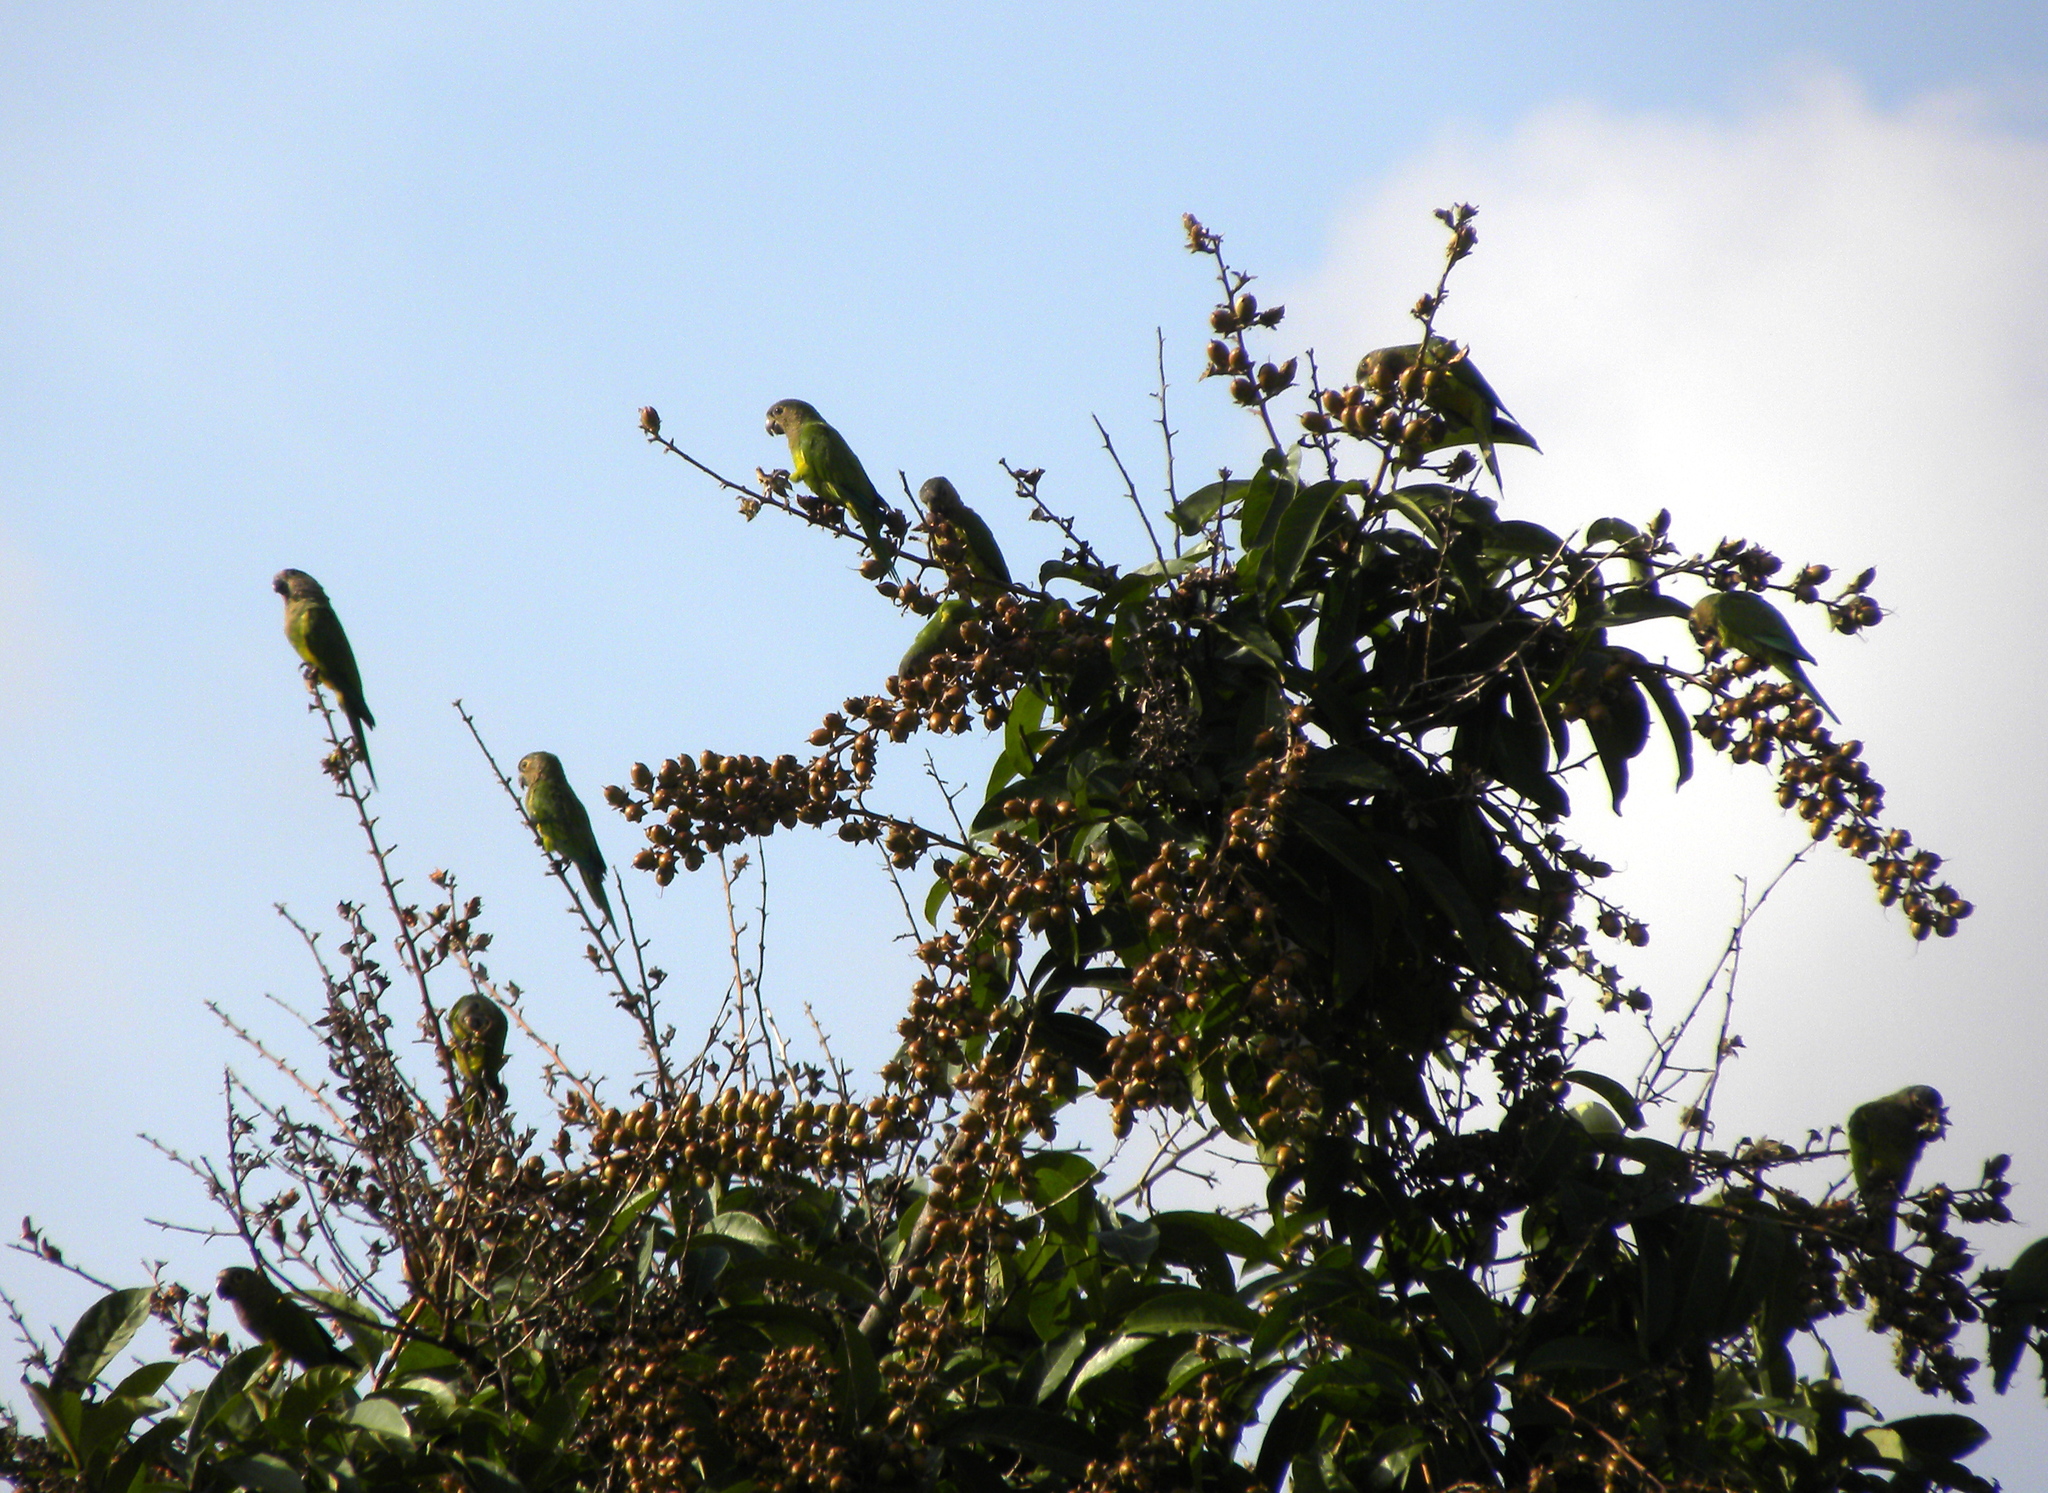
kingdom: Animalia
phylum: Chordata
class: Aves
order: Psittaciformes
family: Psittacidae
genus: Aratinga
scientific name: Aratinga pertinax
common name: Brown-throated parakeet
